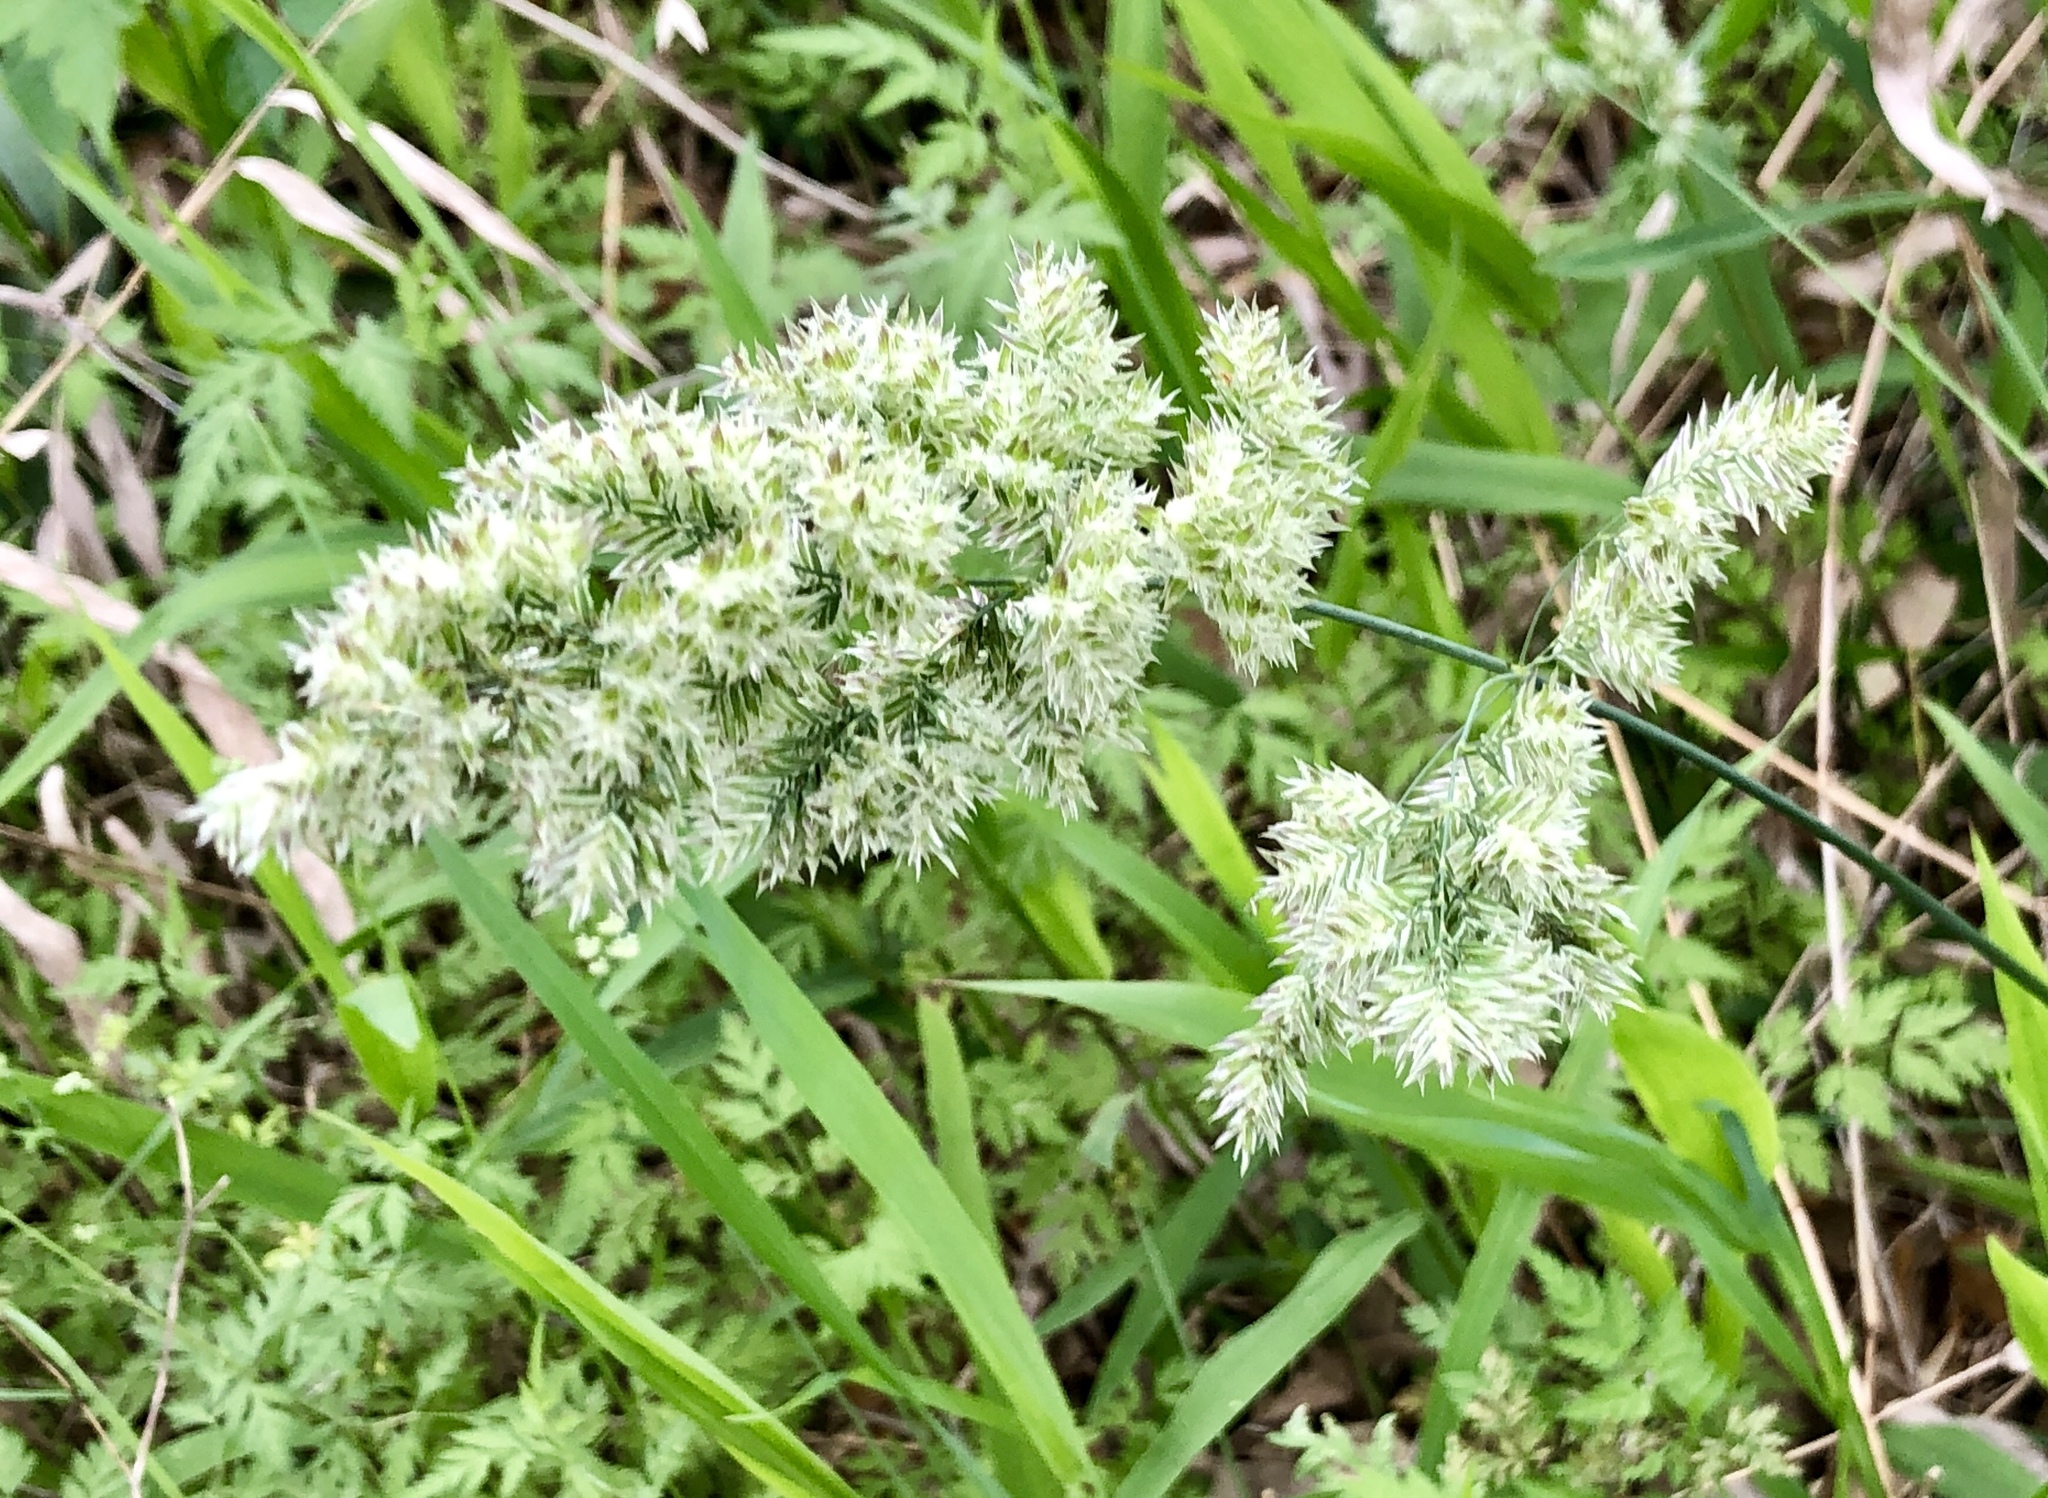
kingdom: Plantae
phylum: Tracheophyta
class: Liliopsida
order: Poales
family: Poaceae
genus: Poa
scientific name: Poa arachnifera
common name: Texas bluegrass
